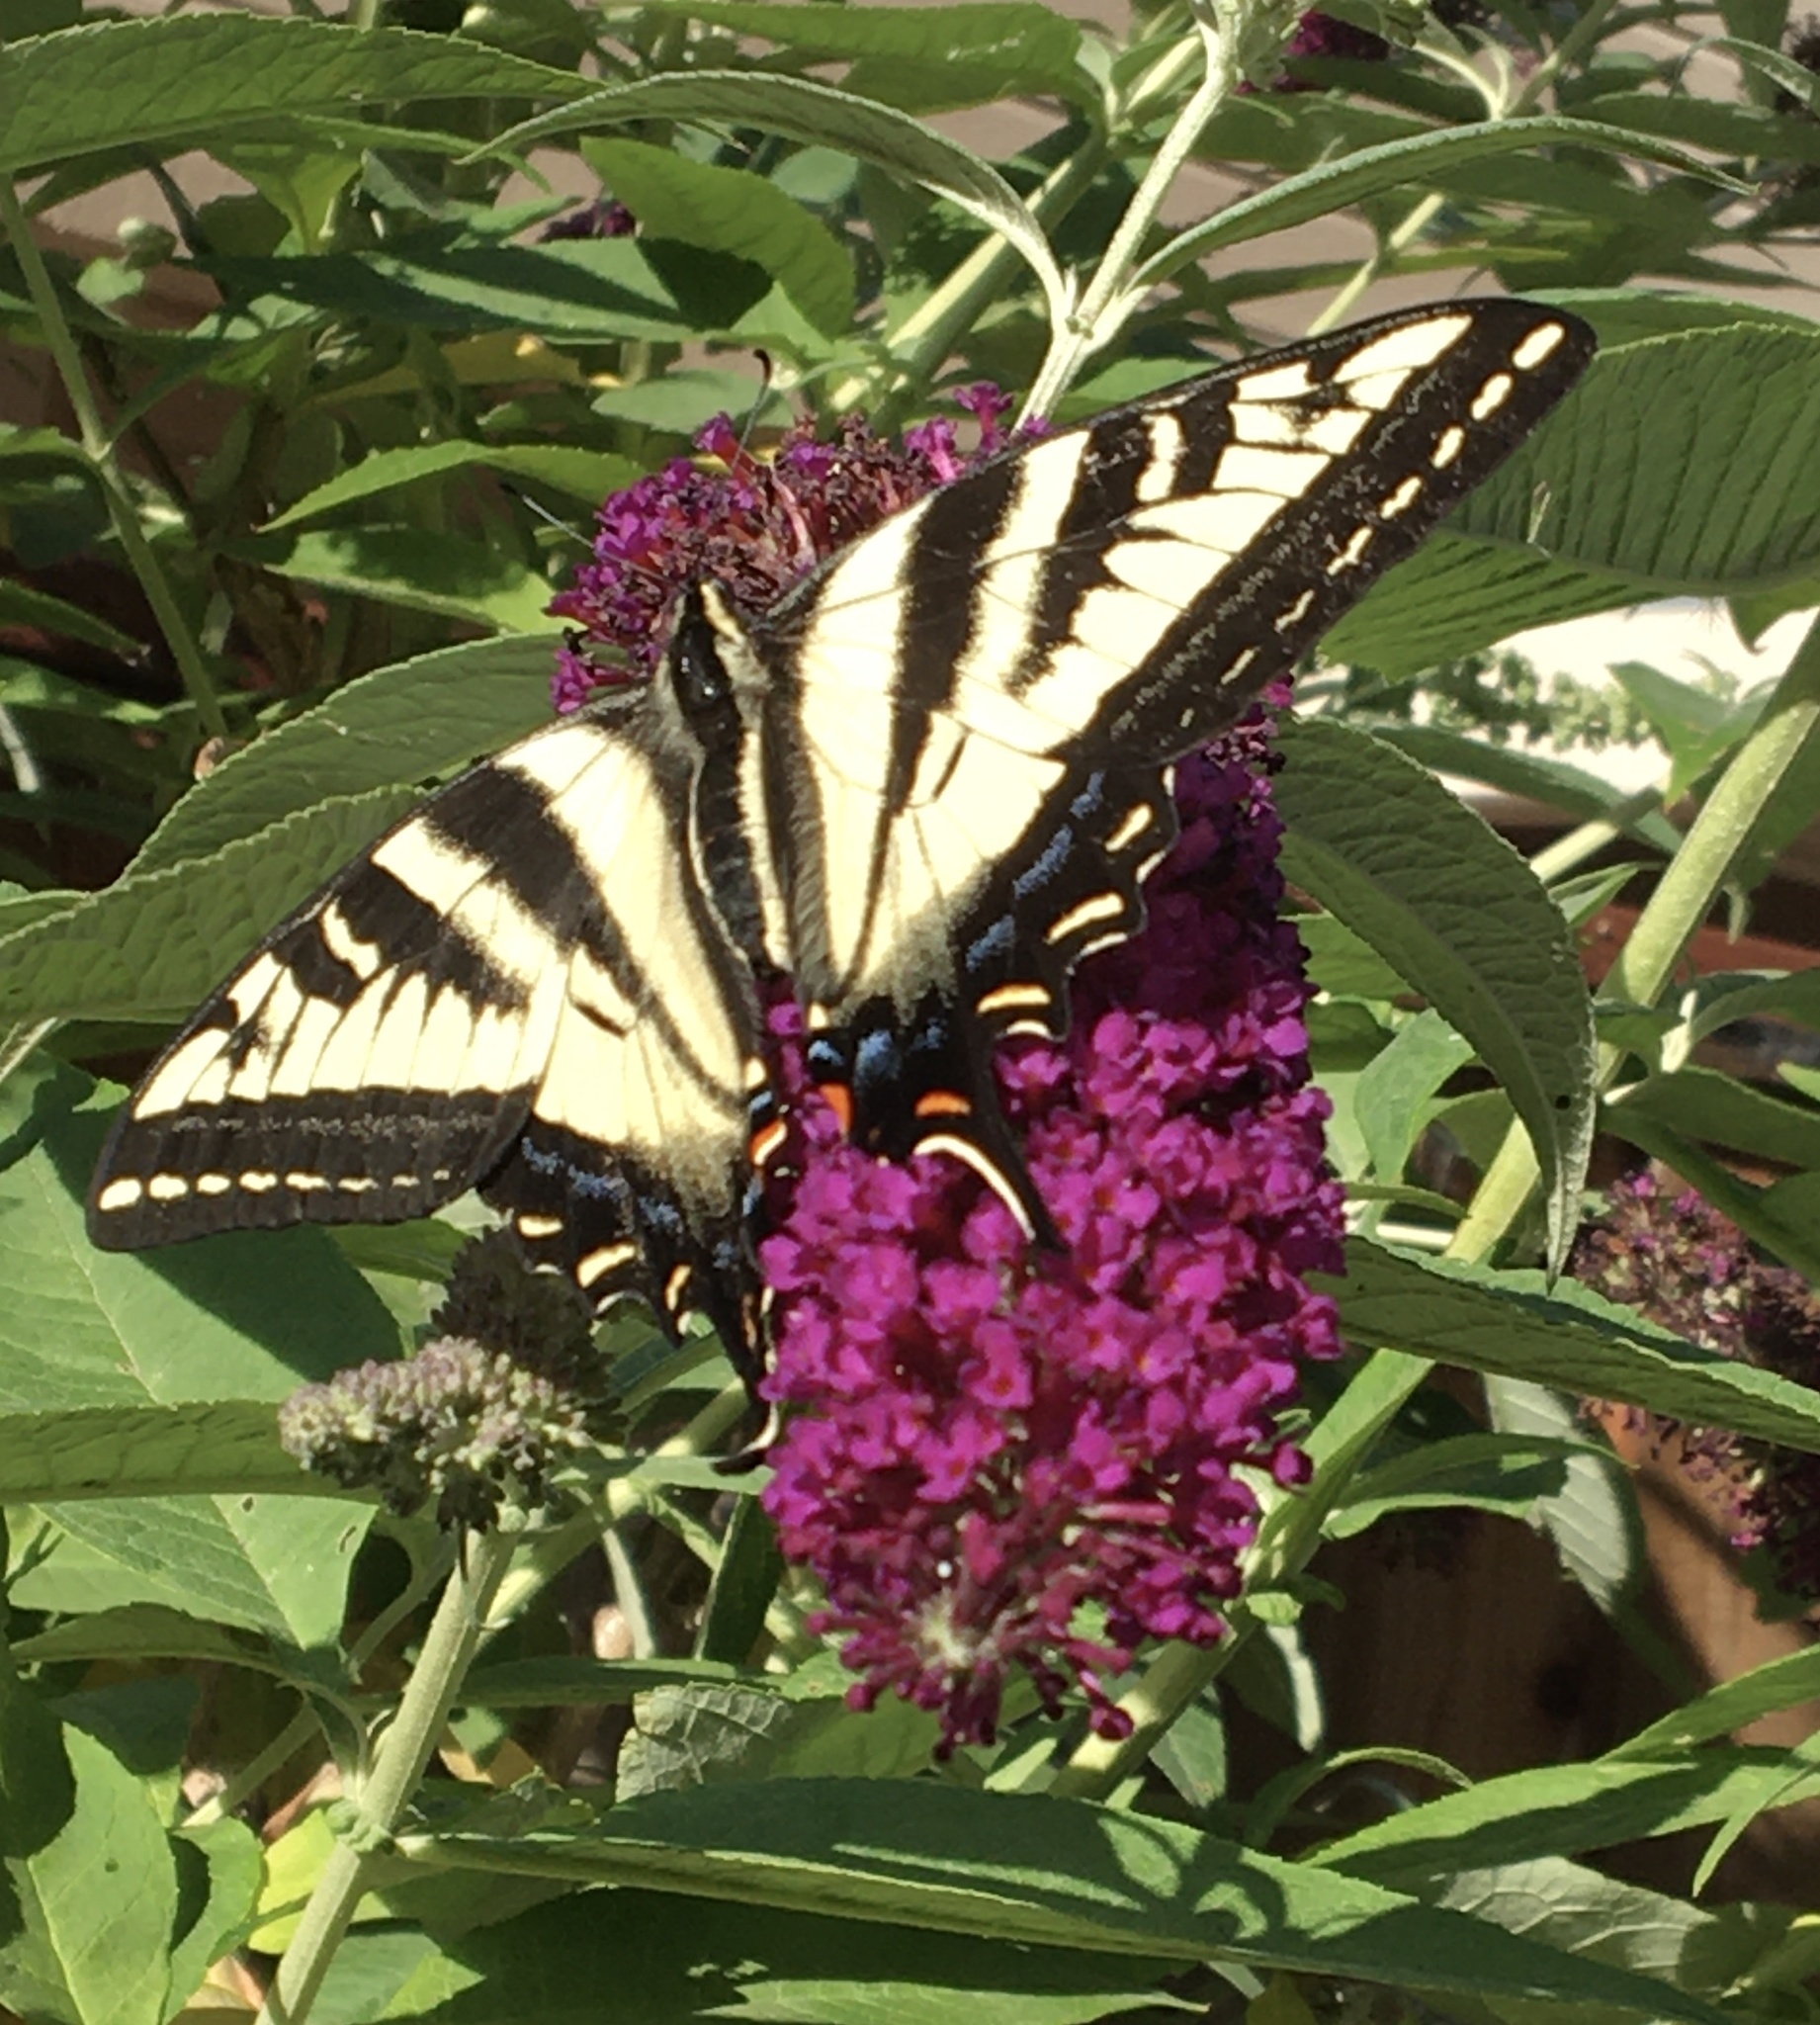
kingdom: Animalia
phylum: Arthropoda
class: Insecta
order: Lepidoptera
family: Papilionidae
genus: Papilio
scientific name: Papilio eurymedon
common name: Pale tiger swallowtail
